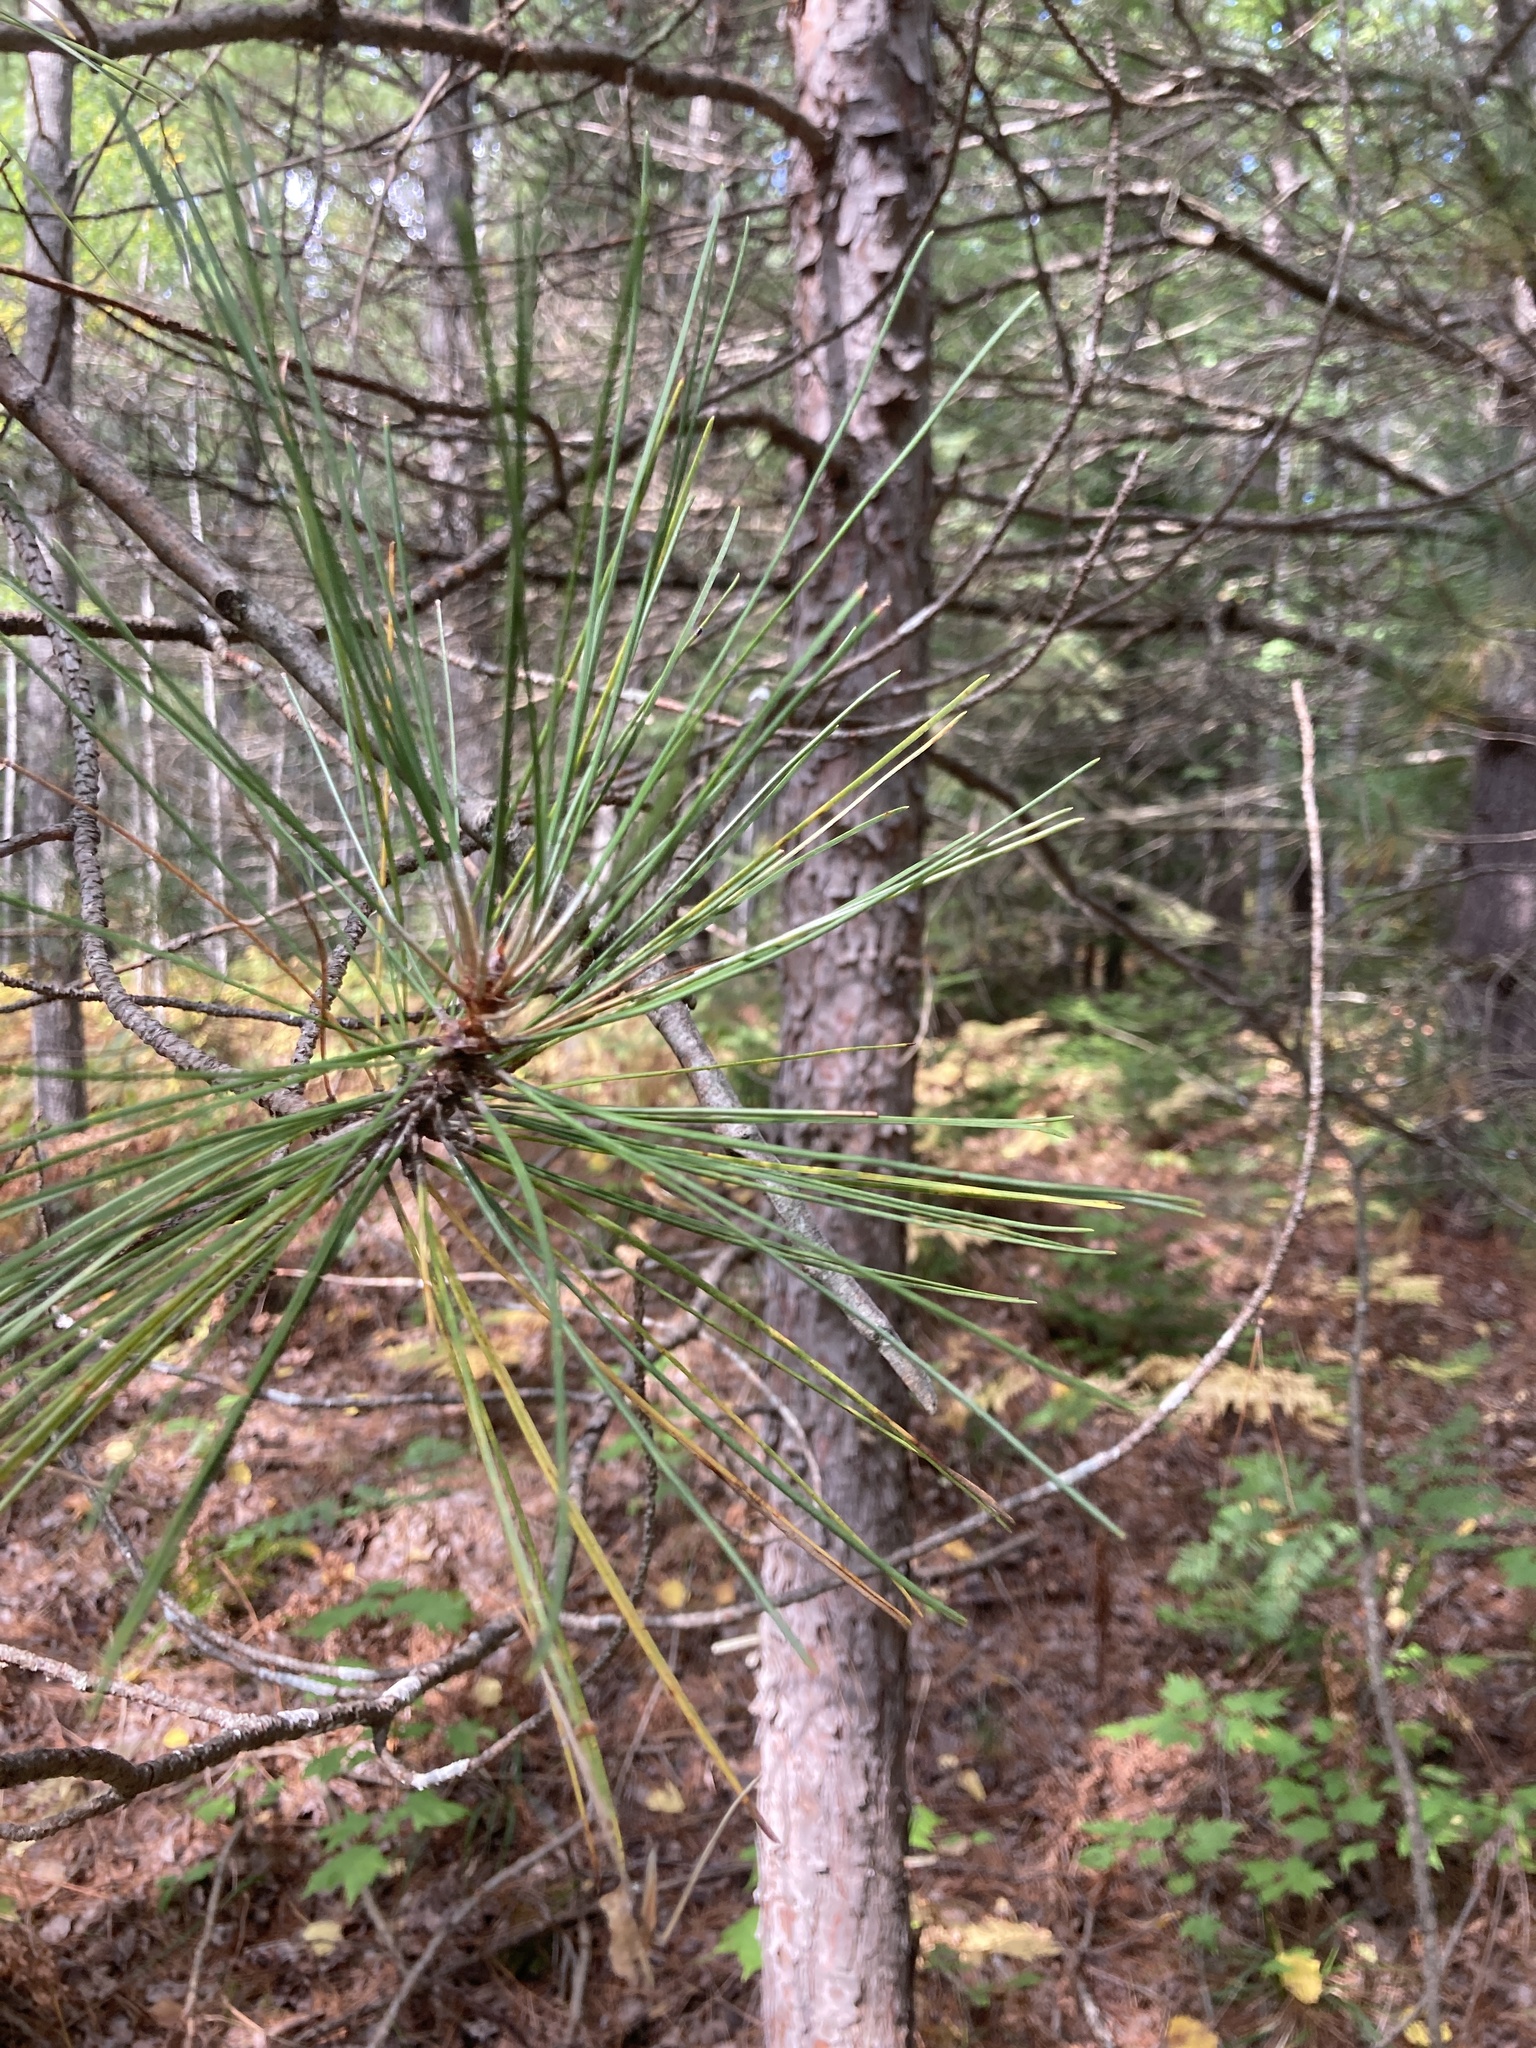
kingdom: Plantae
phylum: Tracheophyta
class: Pinopsida
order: Pinales
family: Pinaceae
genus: Pinus
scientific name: Pinus resinosa
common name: Norway pine
